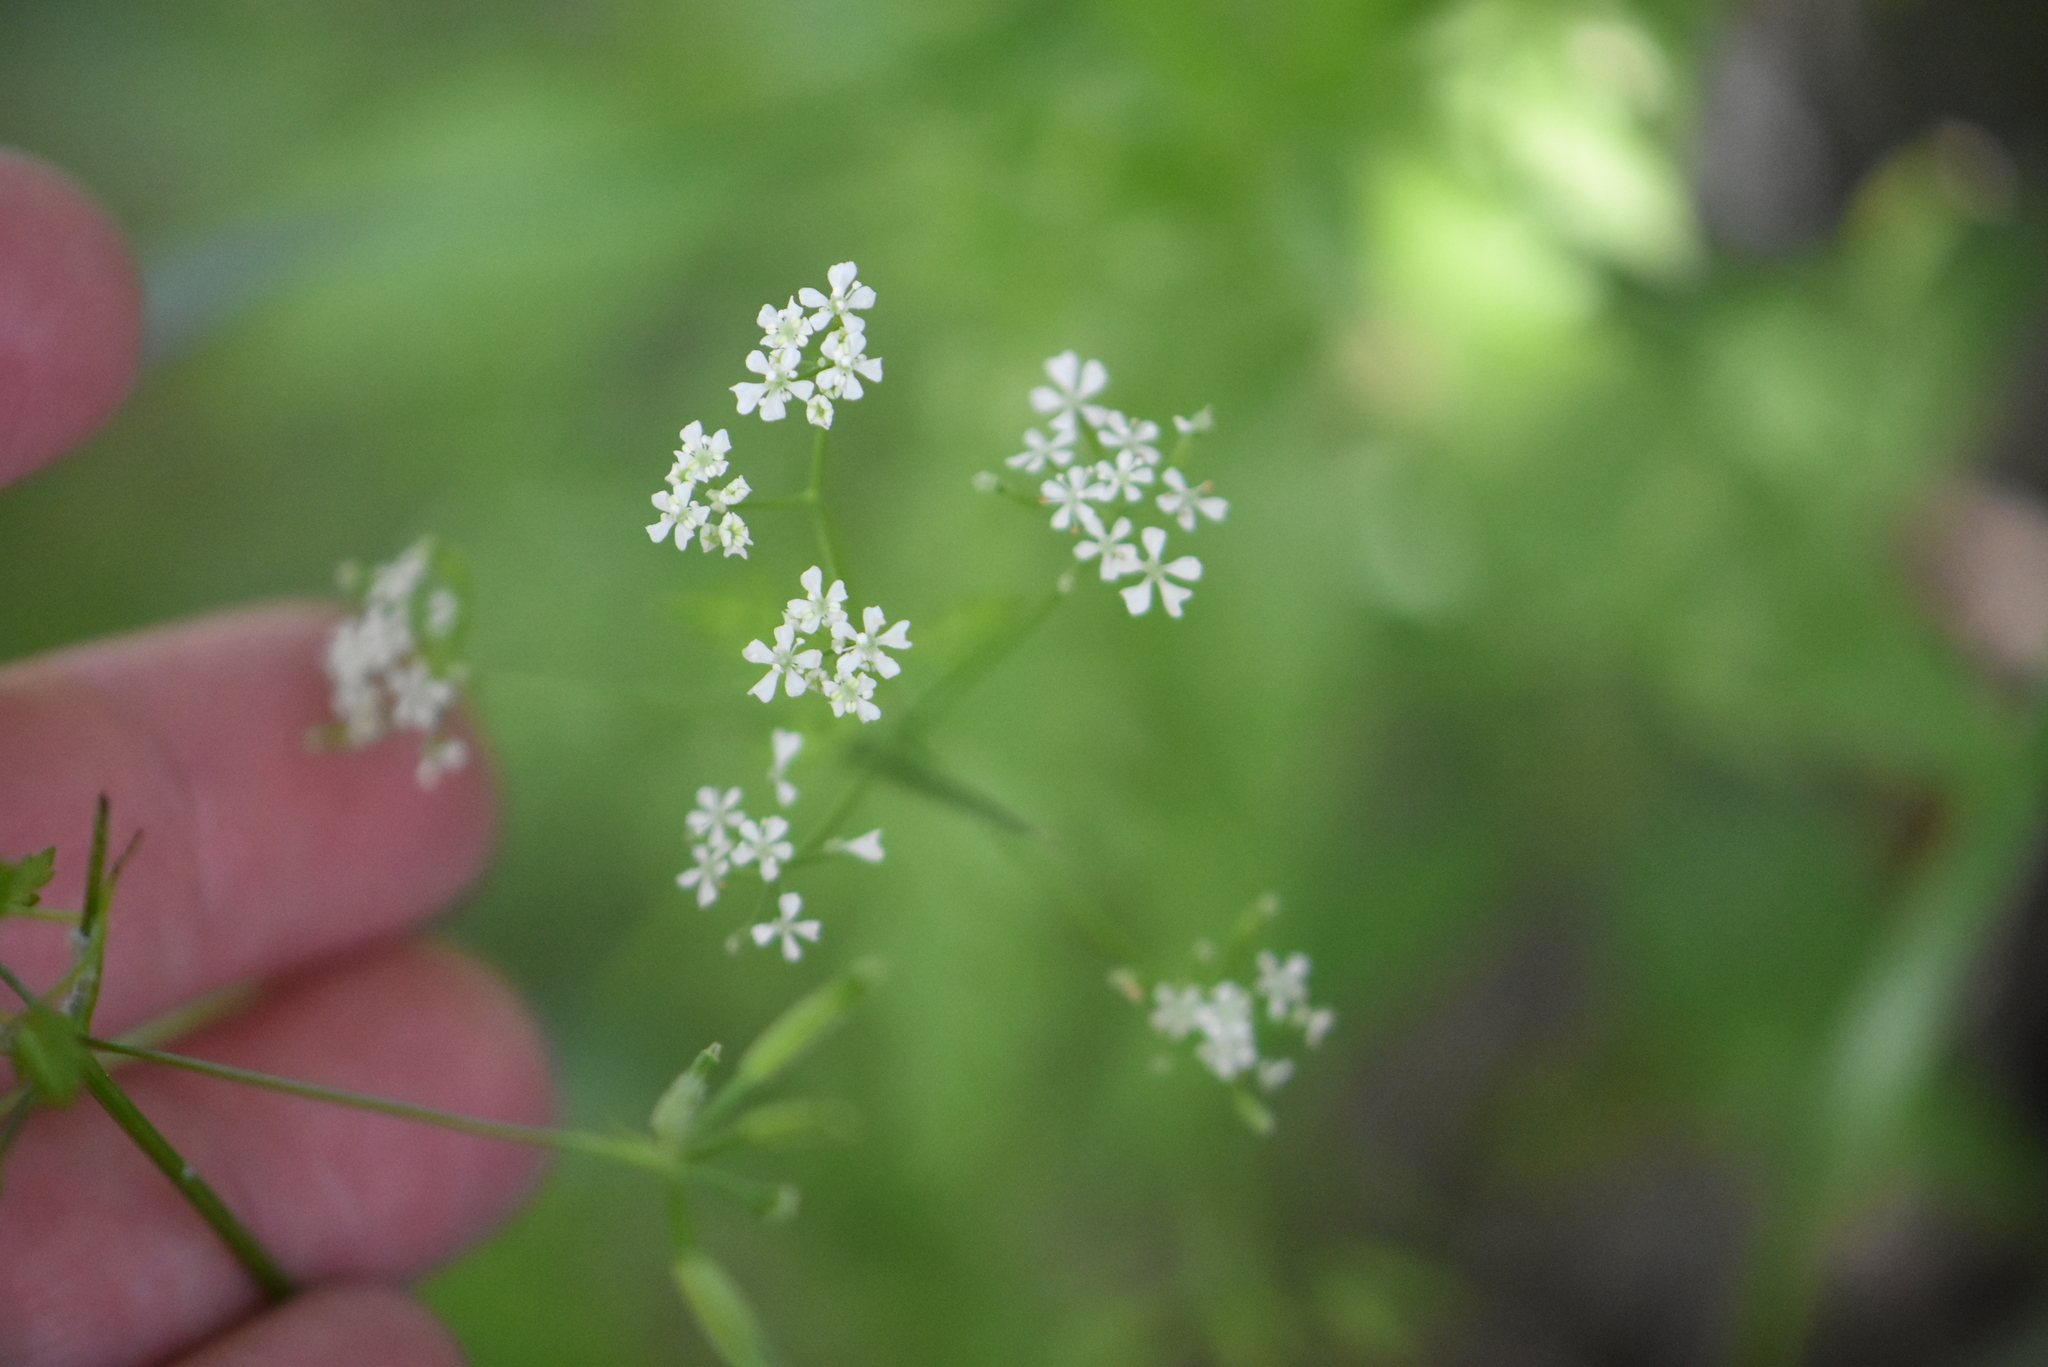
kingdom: Plantae
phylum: Tracheophyta
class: Magnoliopsida
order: Apiales
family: Apiaceae
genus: Anthriscus
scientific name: Anthriscus cerefolium
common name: Garden chervil
